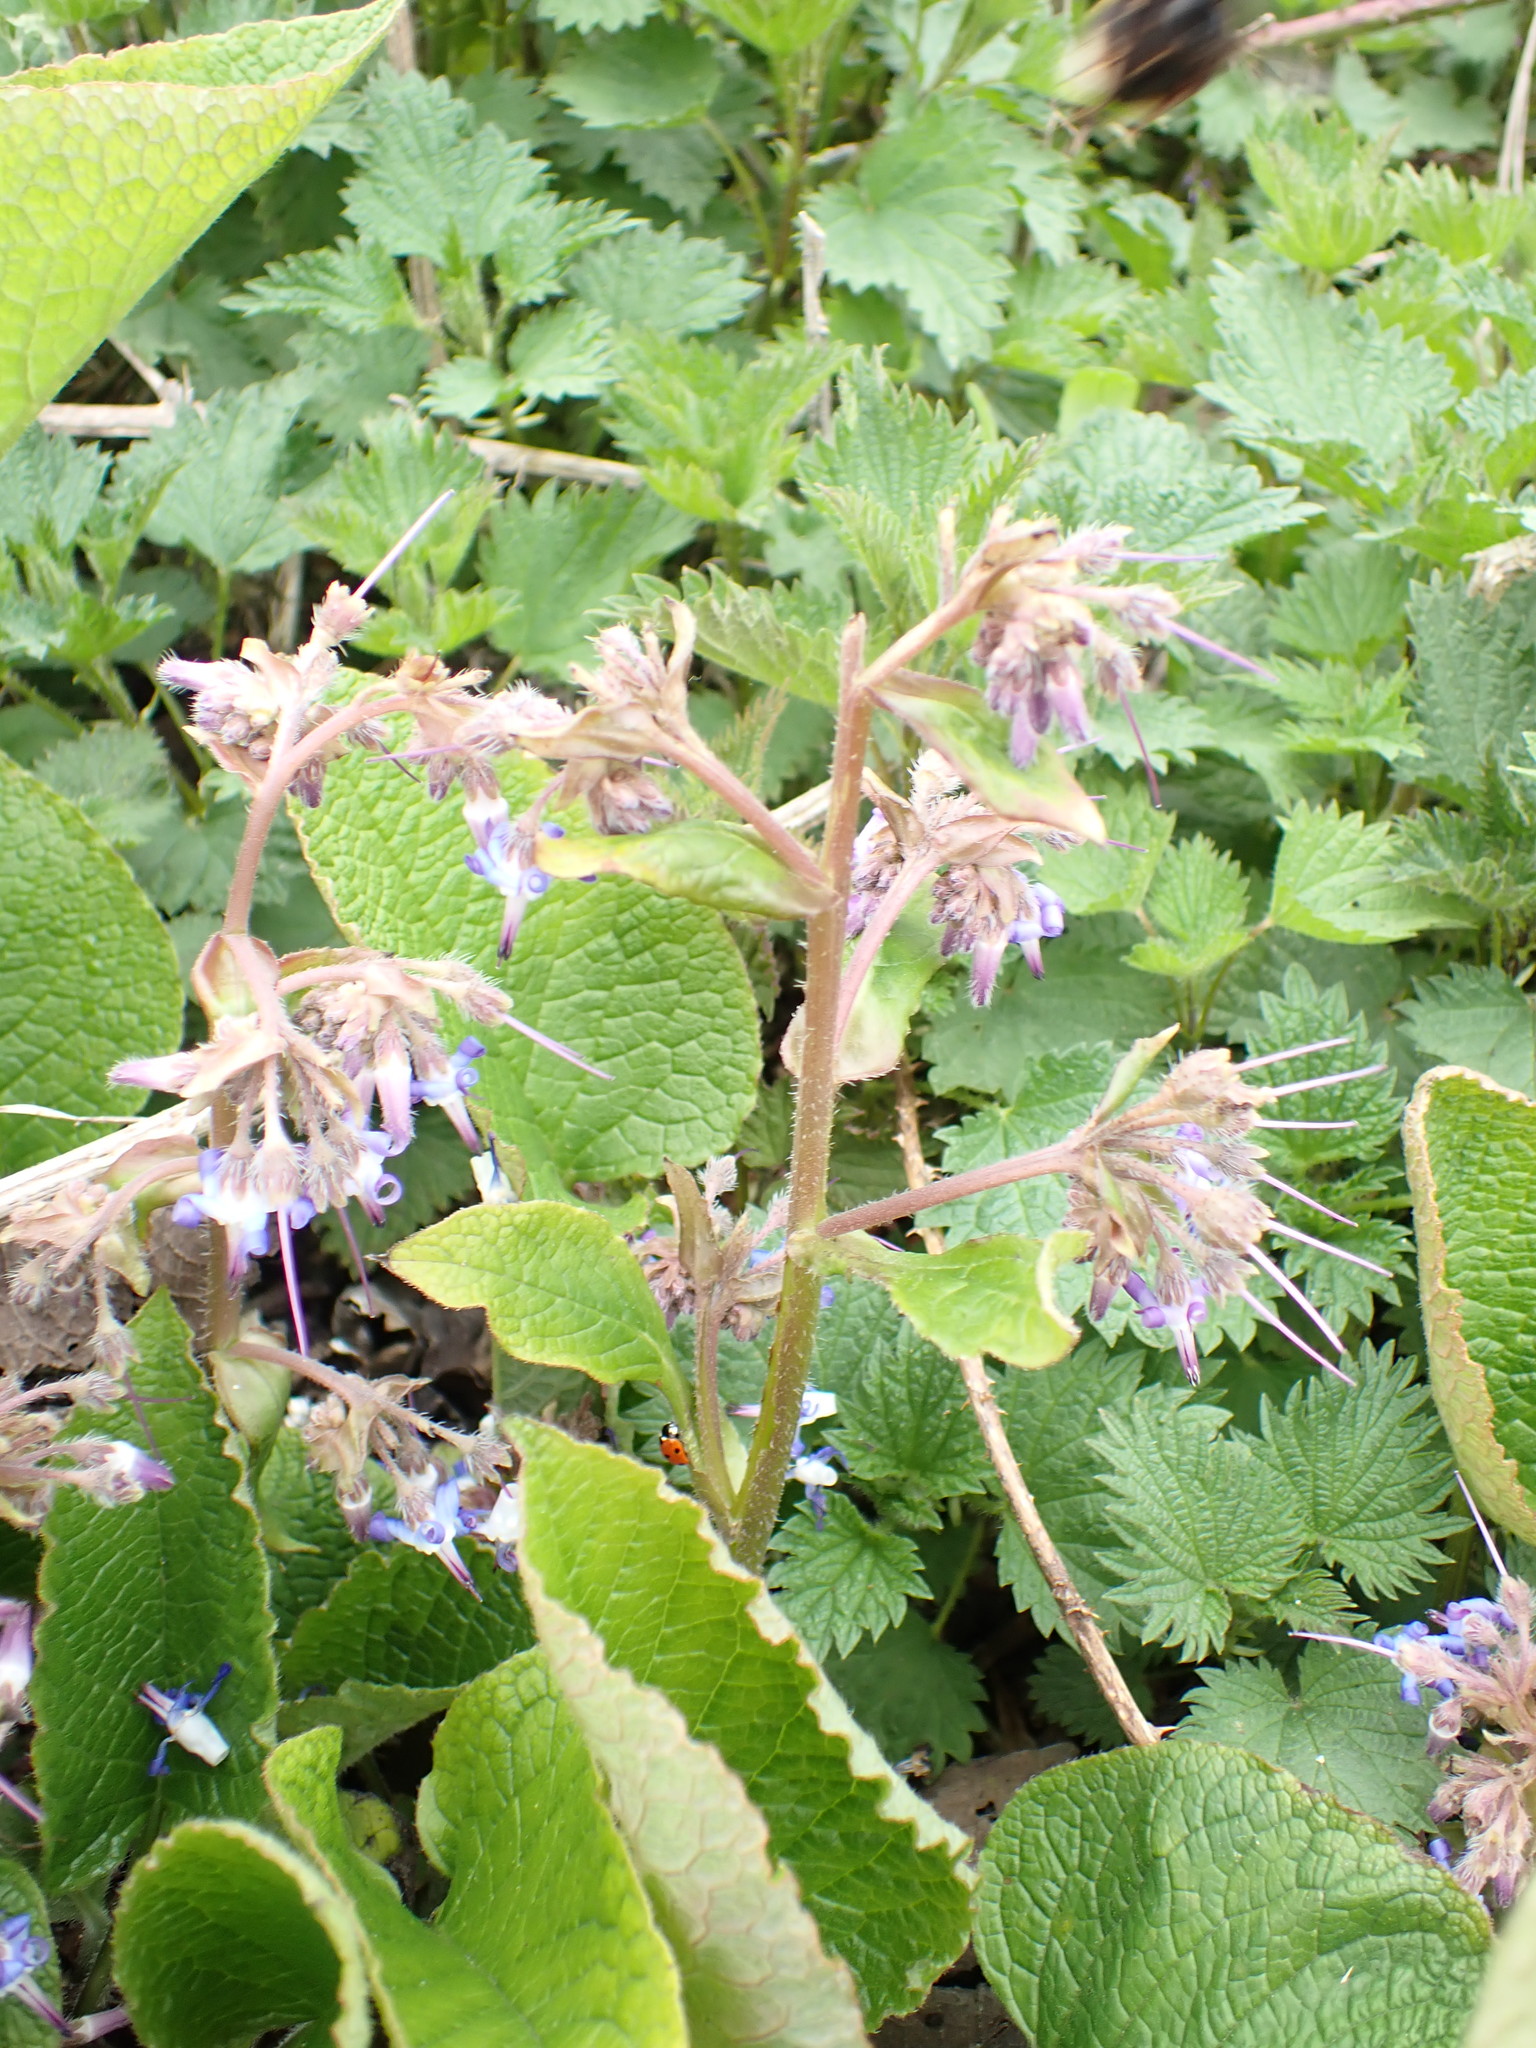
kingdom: Plantae
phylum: Tracheophyta
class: Magnoliopsida
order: Boraginales
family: Boraginaceae
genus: Trachystemon
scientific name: Trachystemon orientale
